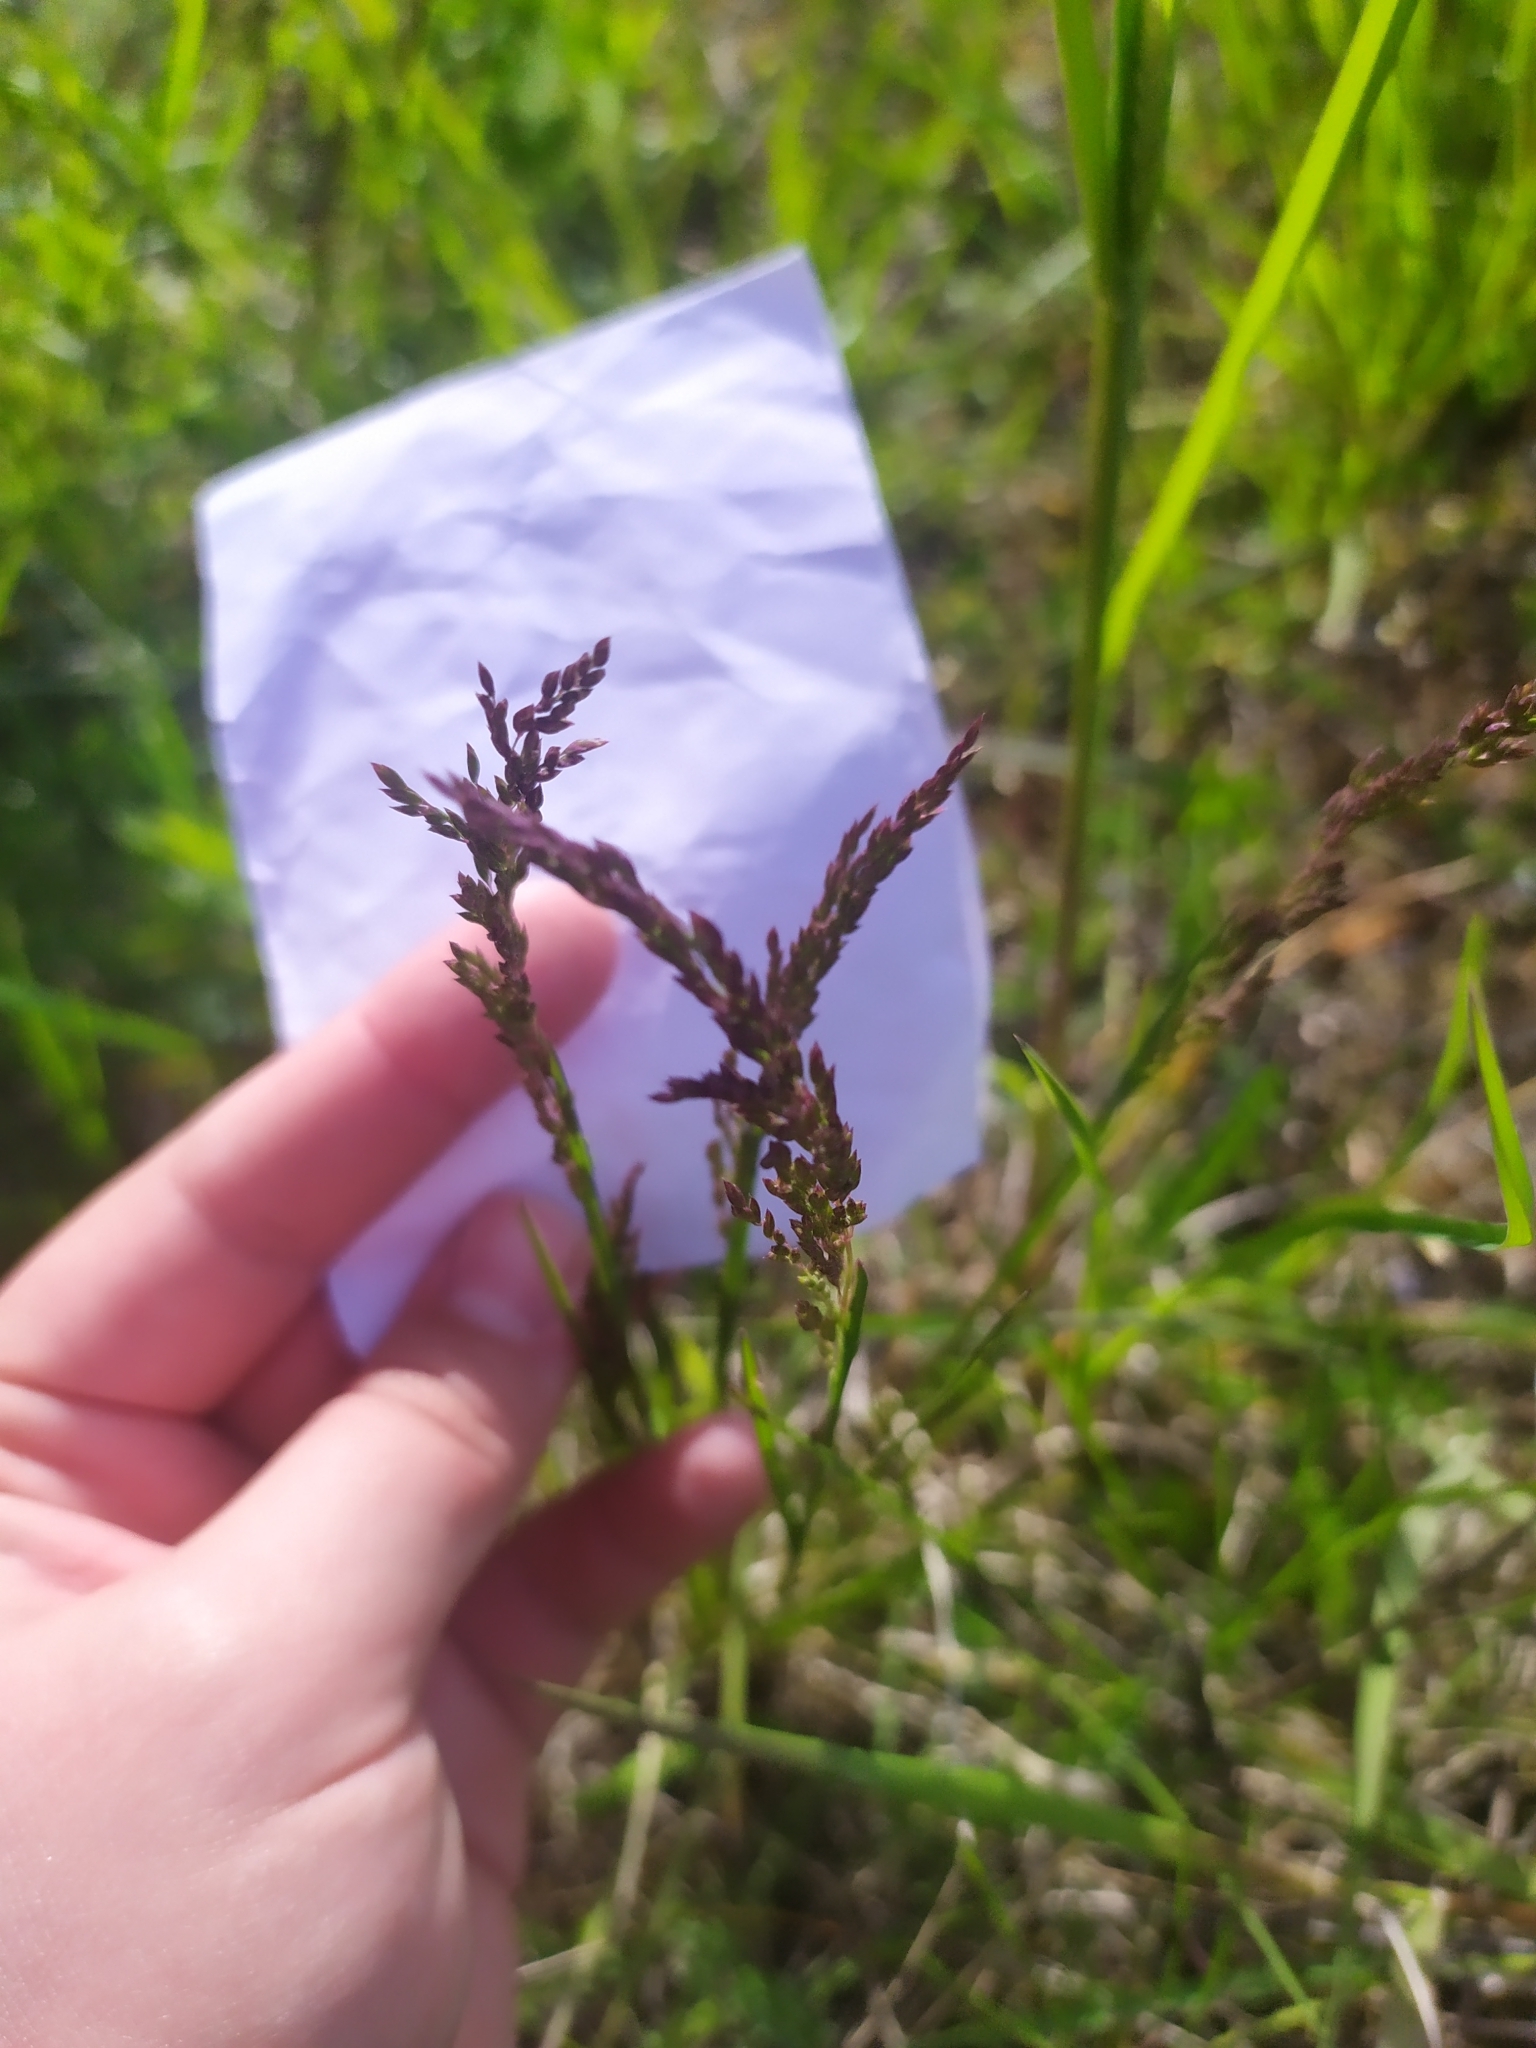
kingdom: Plantae
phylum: Tracheophyta
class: Liliopsida
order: Poales
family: Poaceae
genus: Poa
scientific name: Poa pratensis
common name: Kentucky bluegrass
